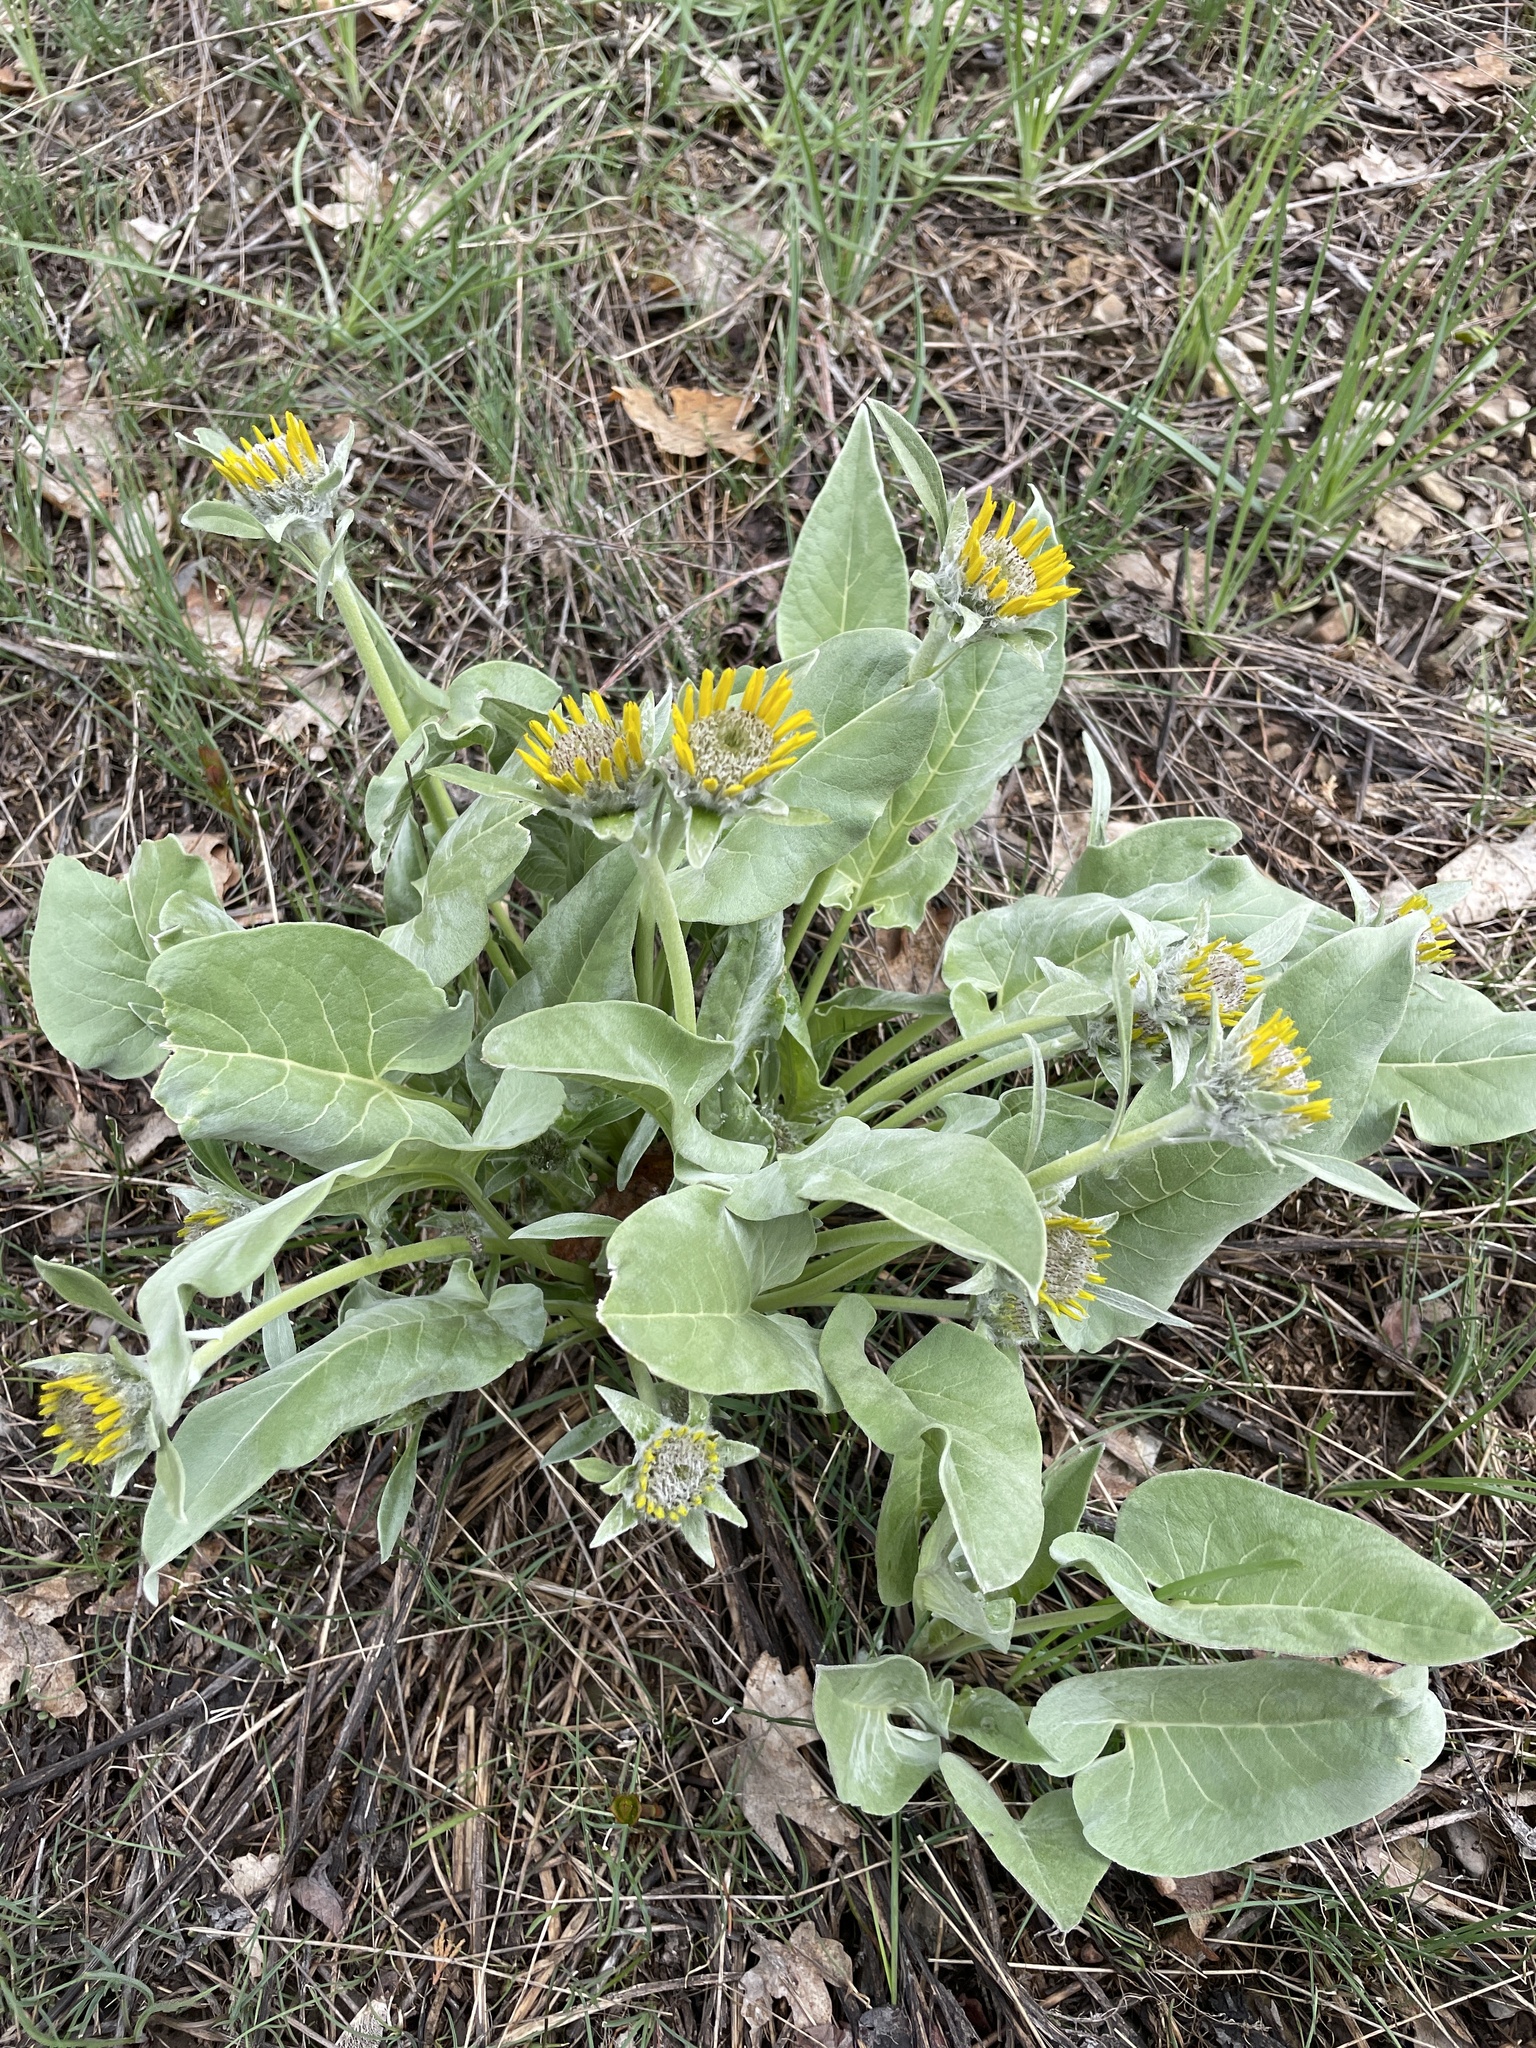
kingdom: Plantae
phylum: Tracheophyta
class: Magnoliopsida
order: Asterales
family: Asteraceae
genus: Wyethia
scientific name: Wyethia sagittata
